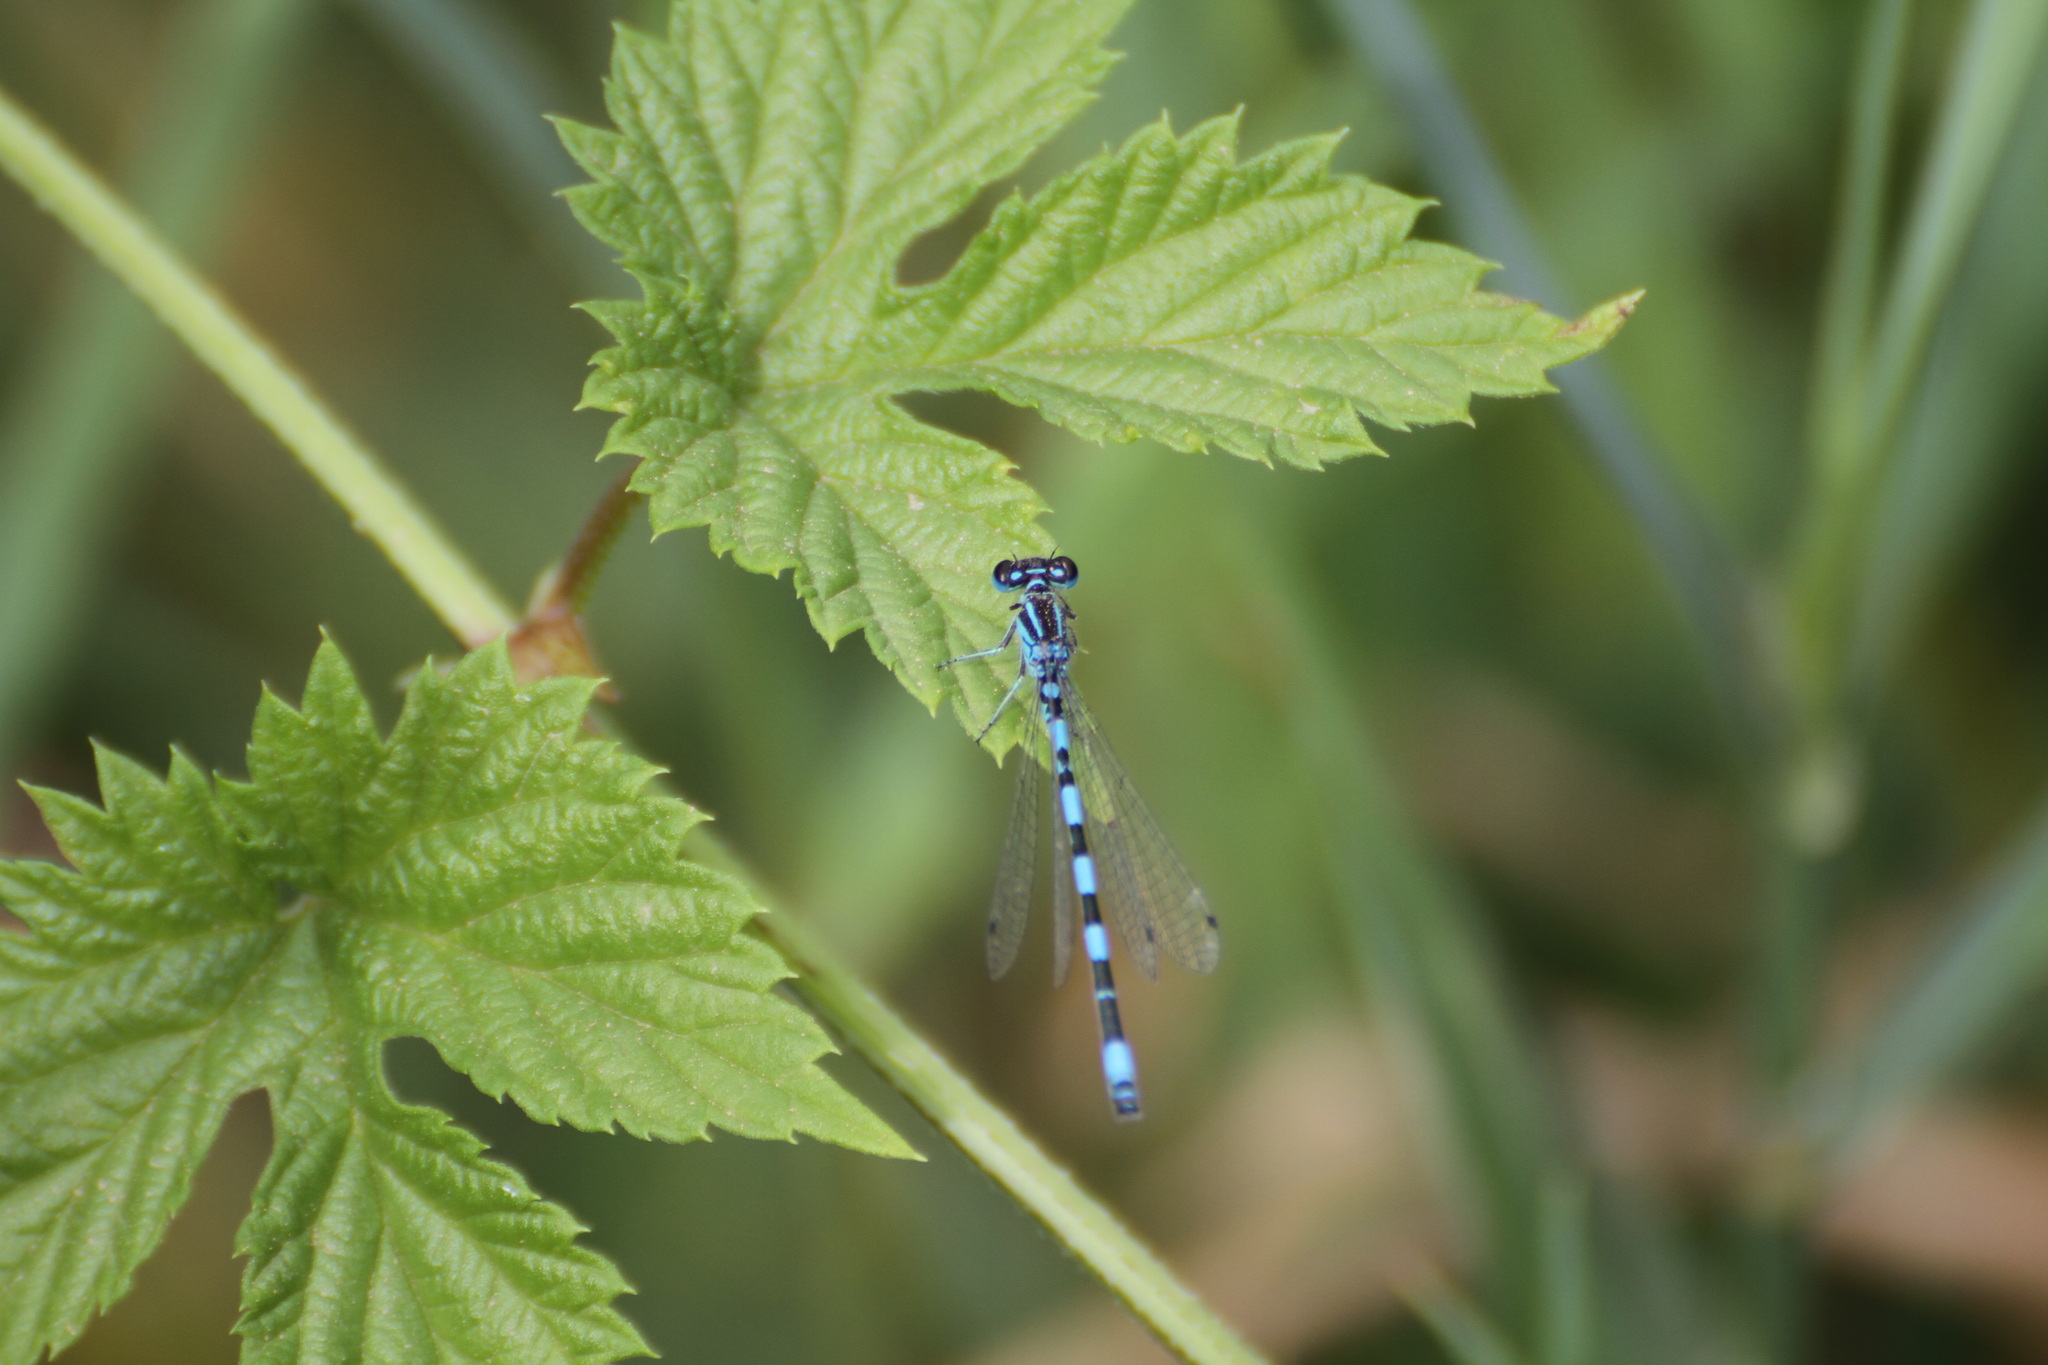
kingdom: Animalia
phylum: Arthropoda
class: Insecta
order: Odonata
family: Coenagrionidae
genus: Coenagrion
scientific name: Coenagrion mercuriale
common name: Southern damselfly
